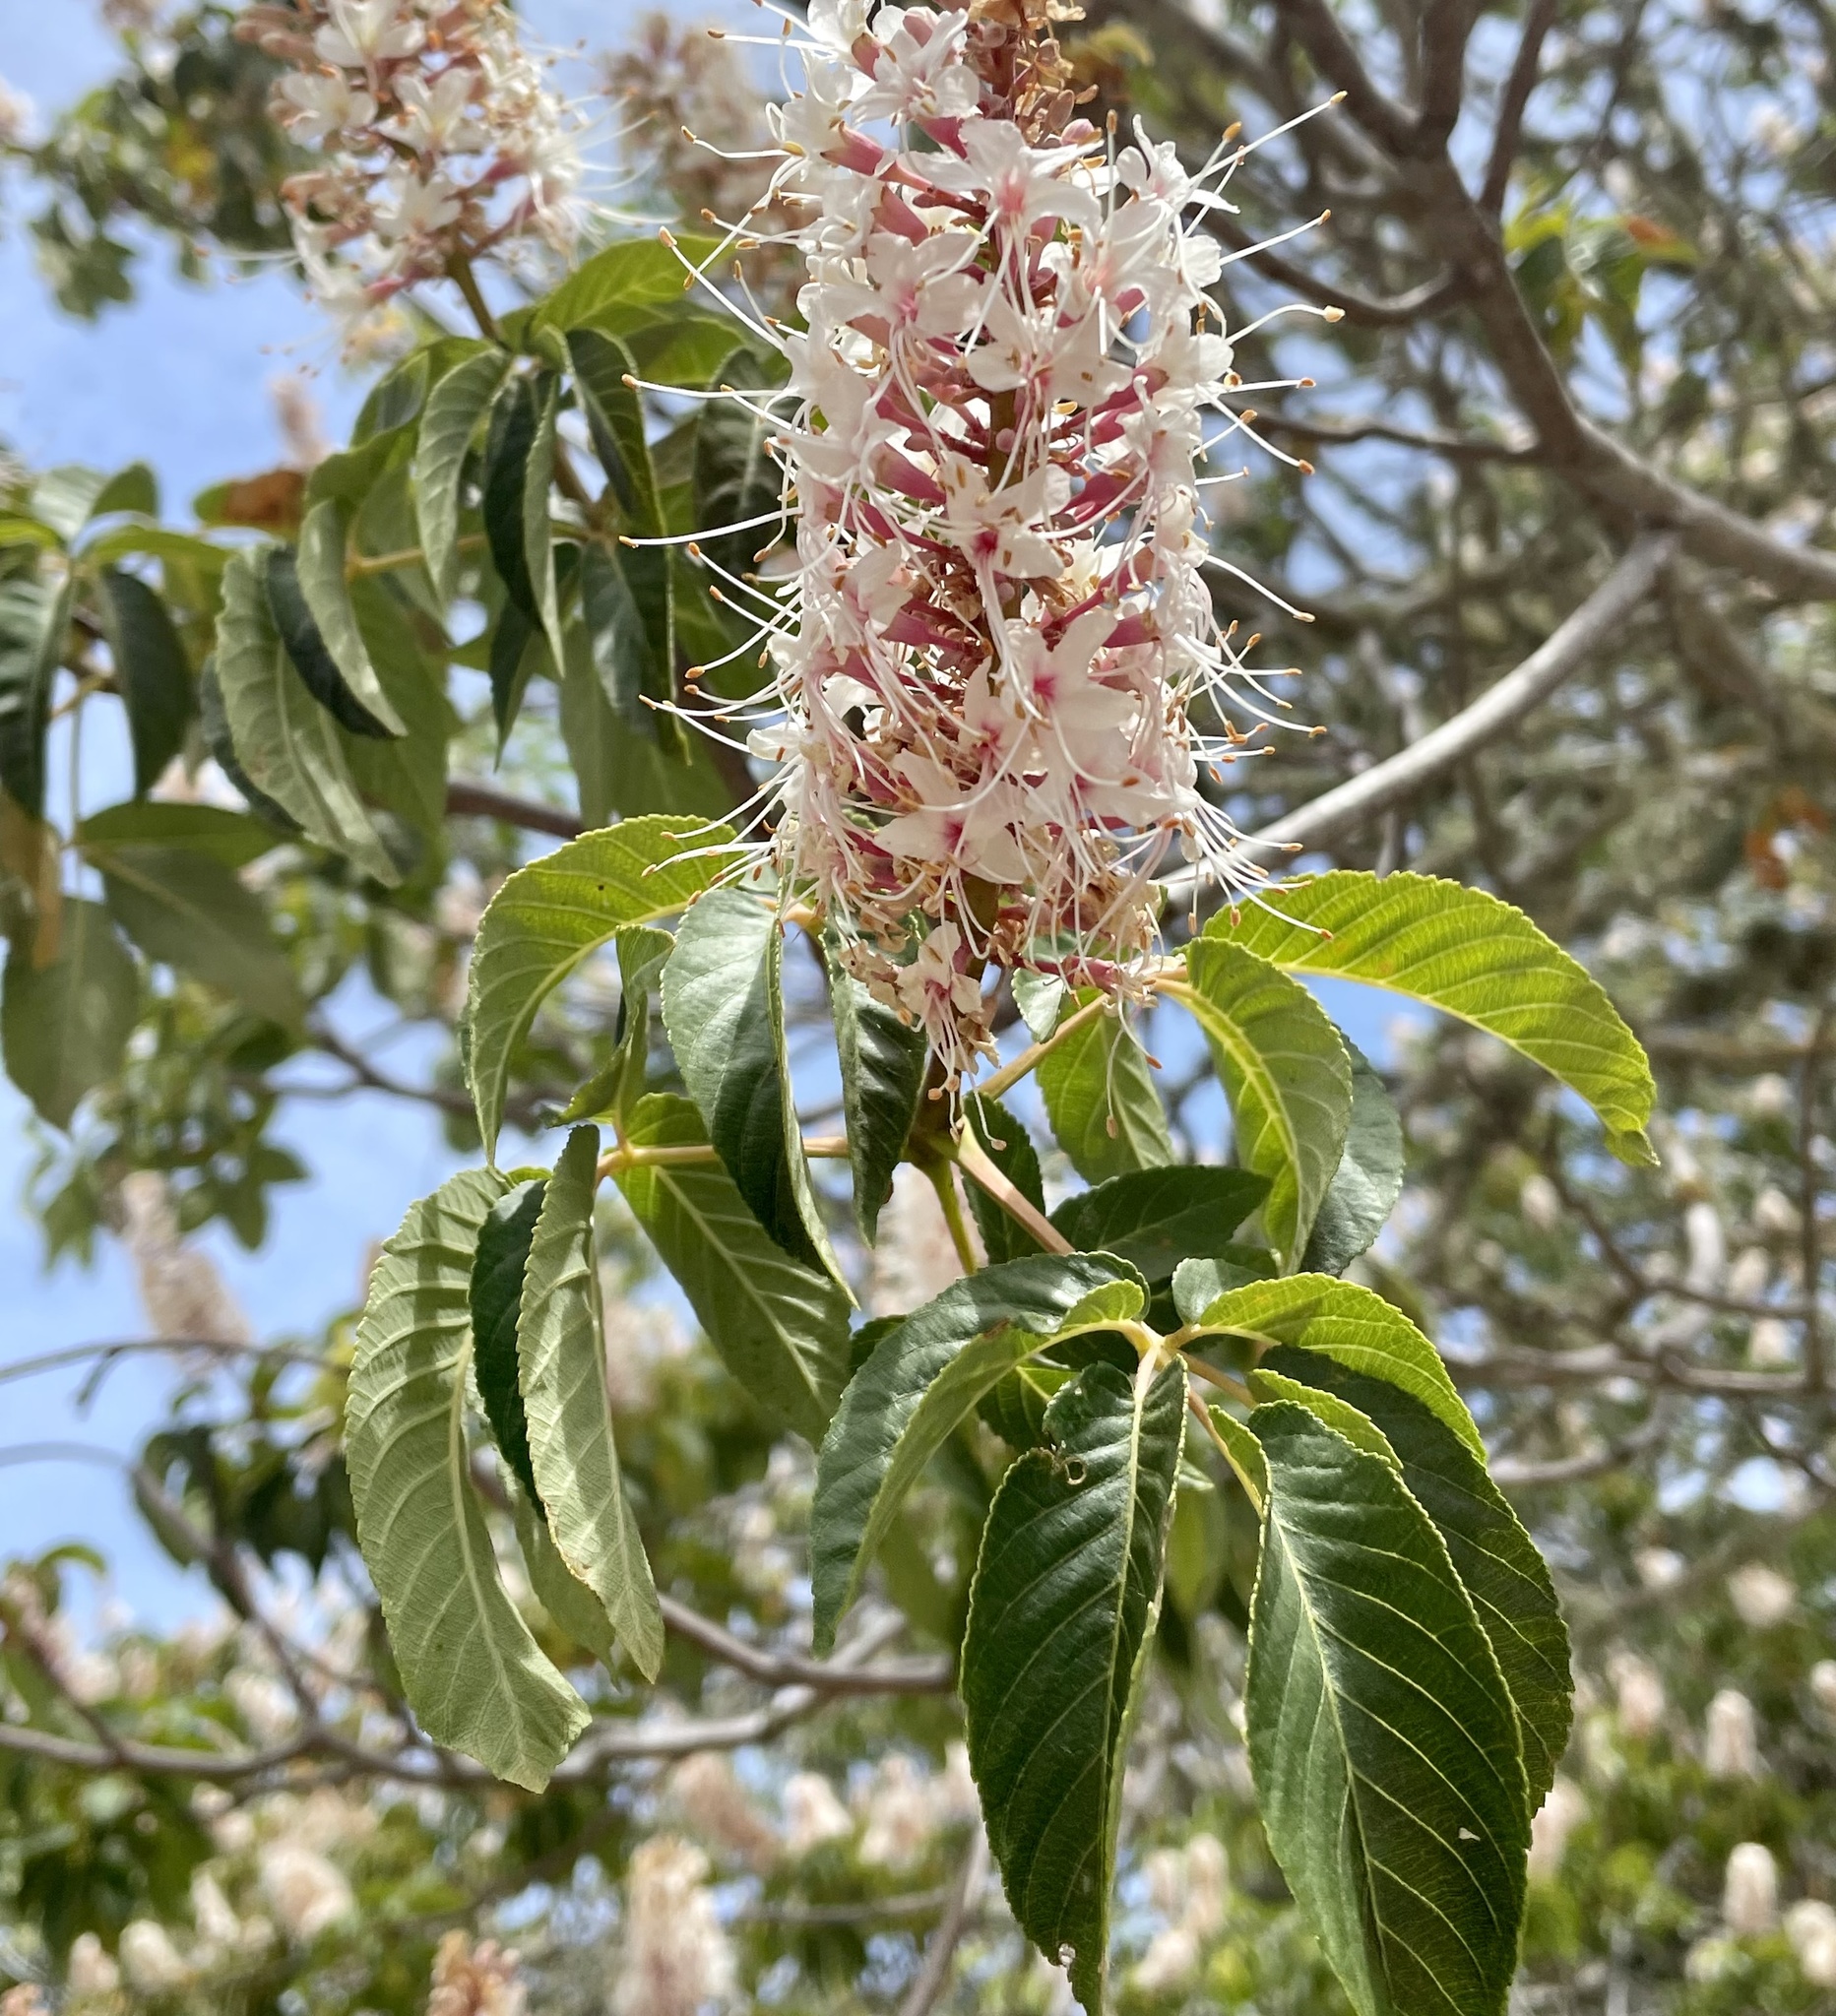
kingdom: Plantae
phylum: Tracheophyta
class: Magnoliopsida
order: Sapindales
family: Sapindaceae
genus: Aesculus
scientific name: Aesculus californica
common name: California buckeye
